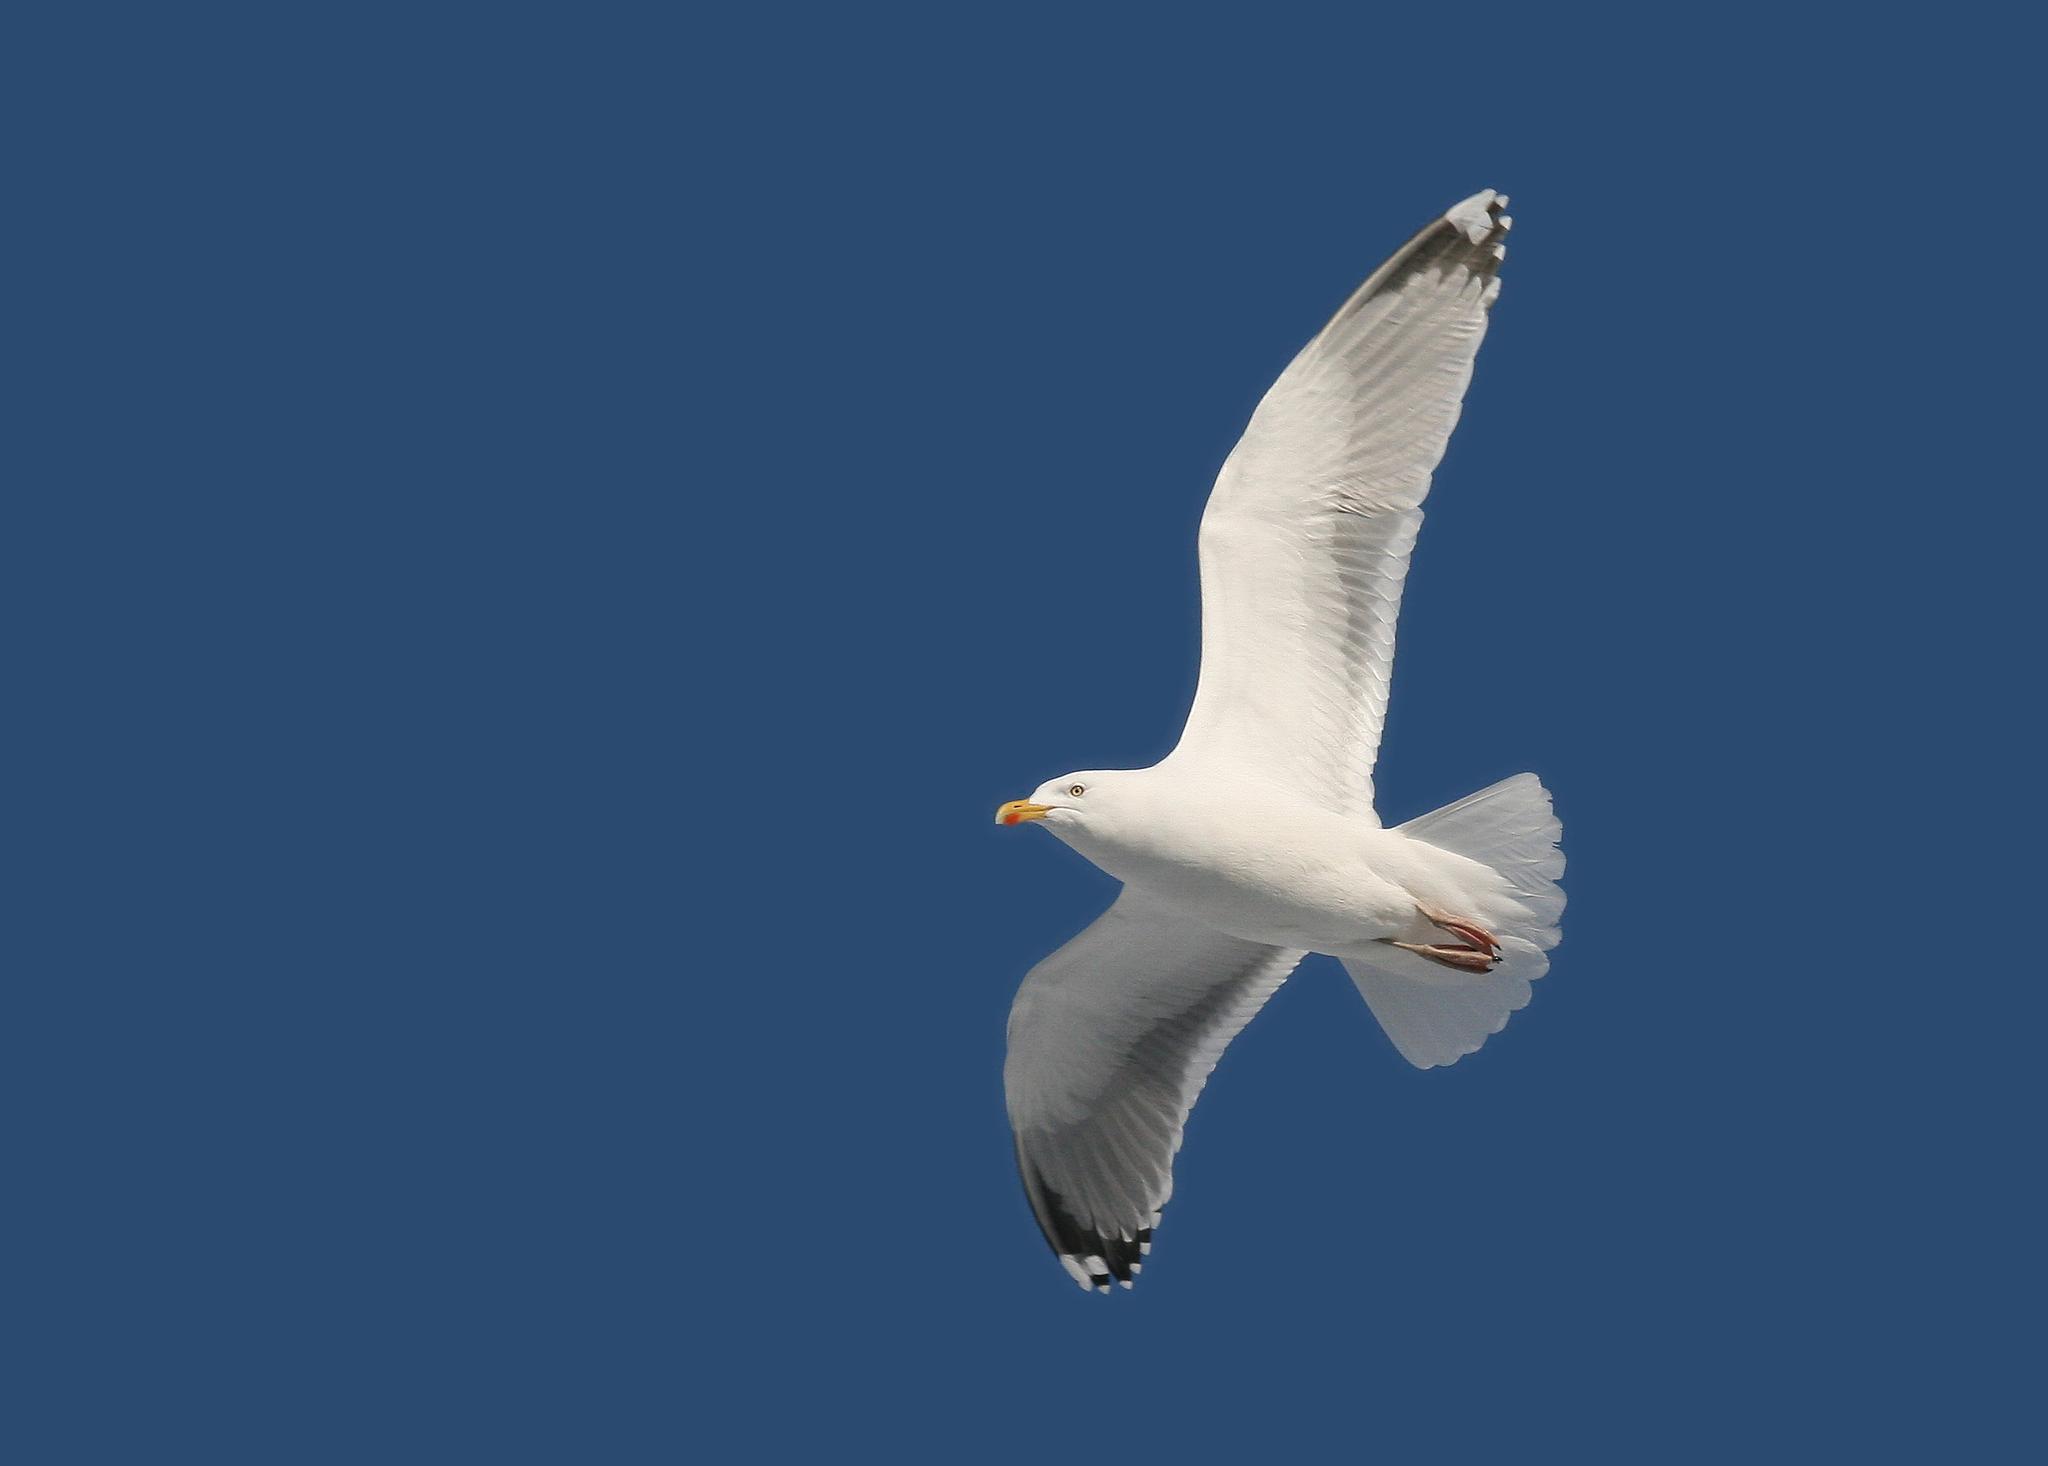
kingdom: Animalia
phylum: Chordata
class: Aves
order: Charadriiformes
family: Laridae
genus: Larus
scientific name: Larus argentatus
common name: Herring gull
